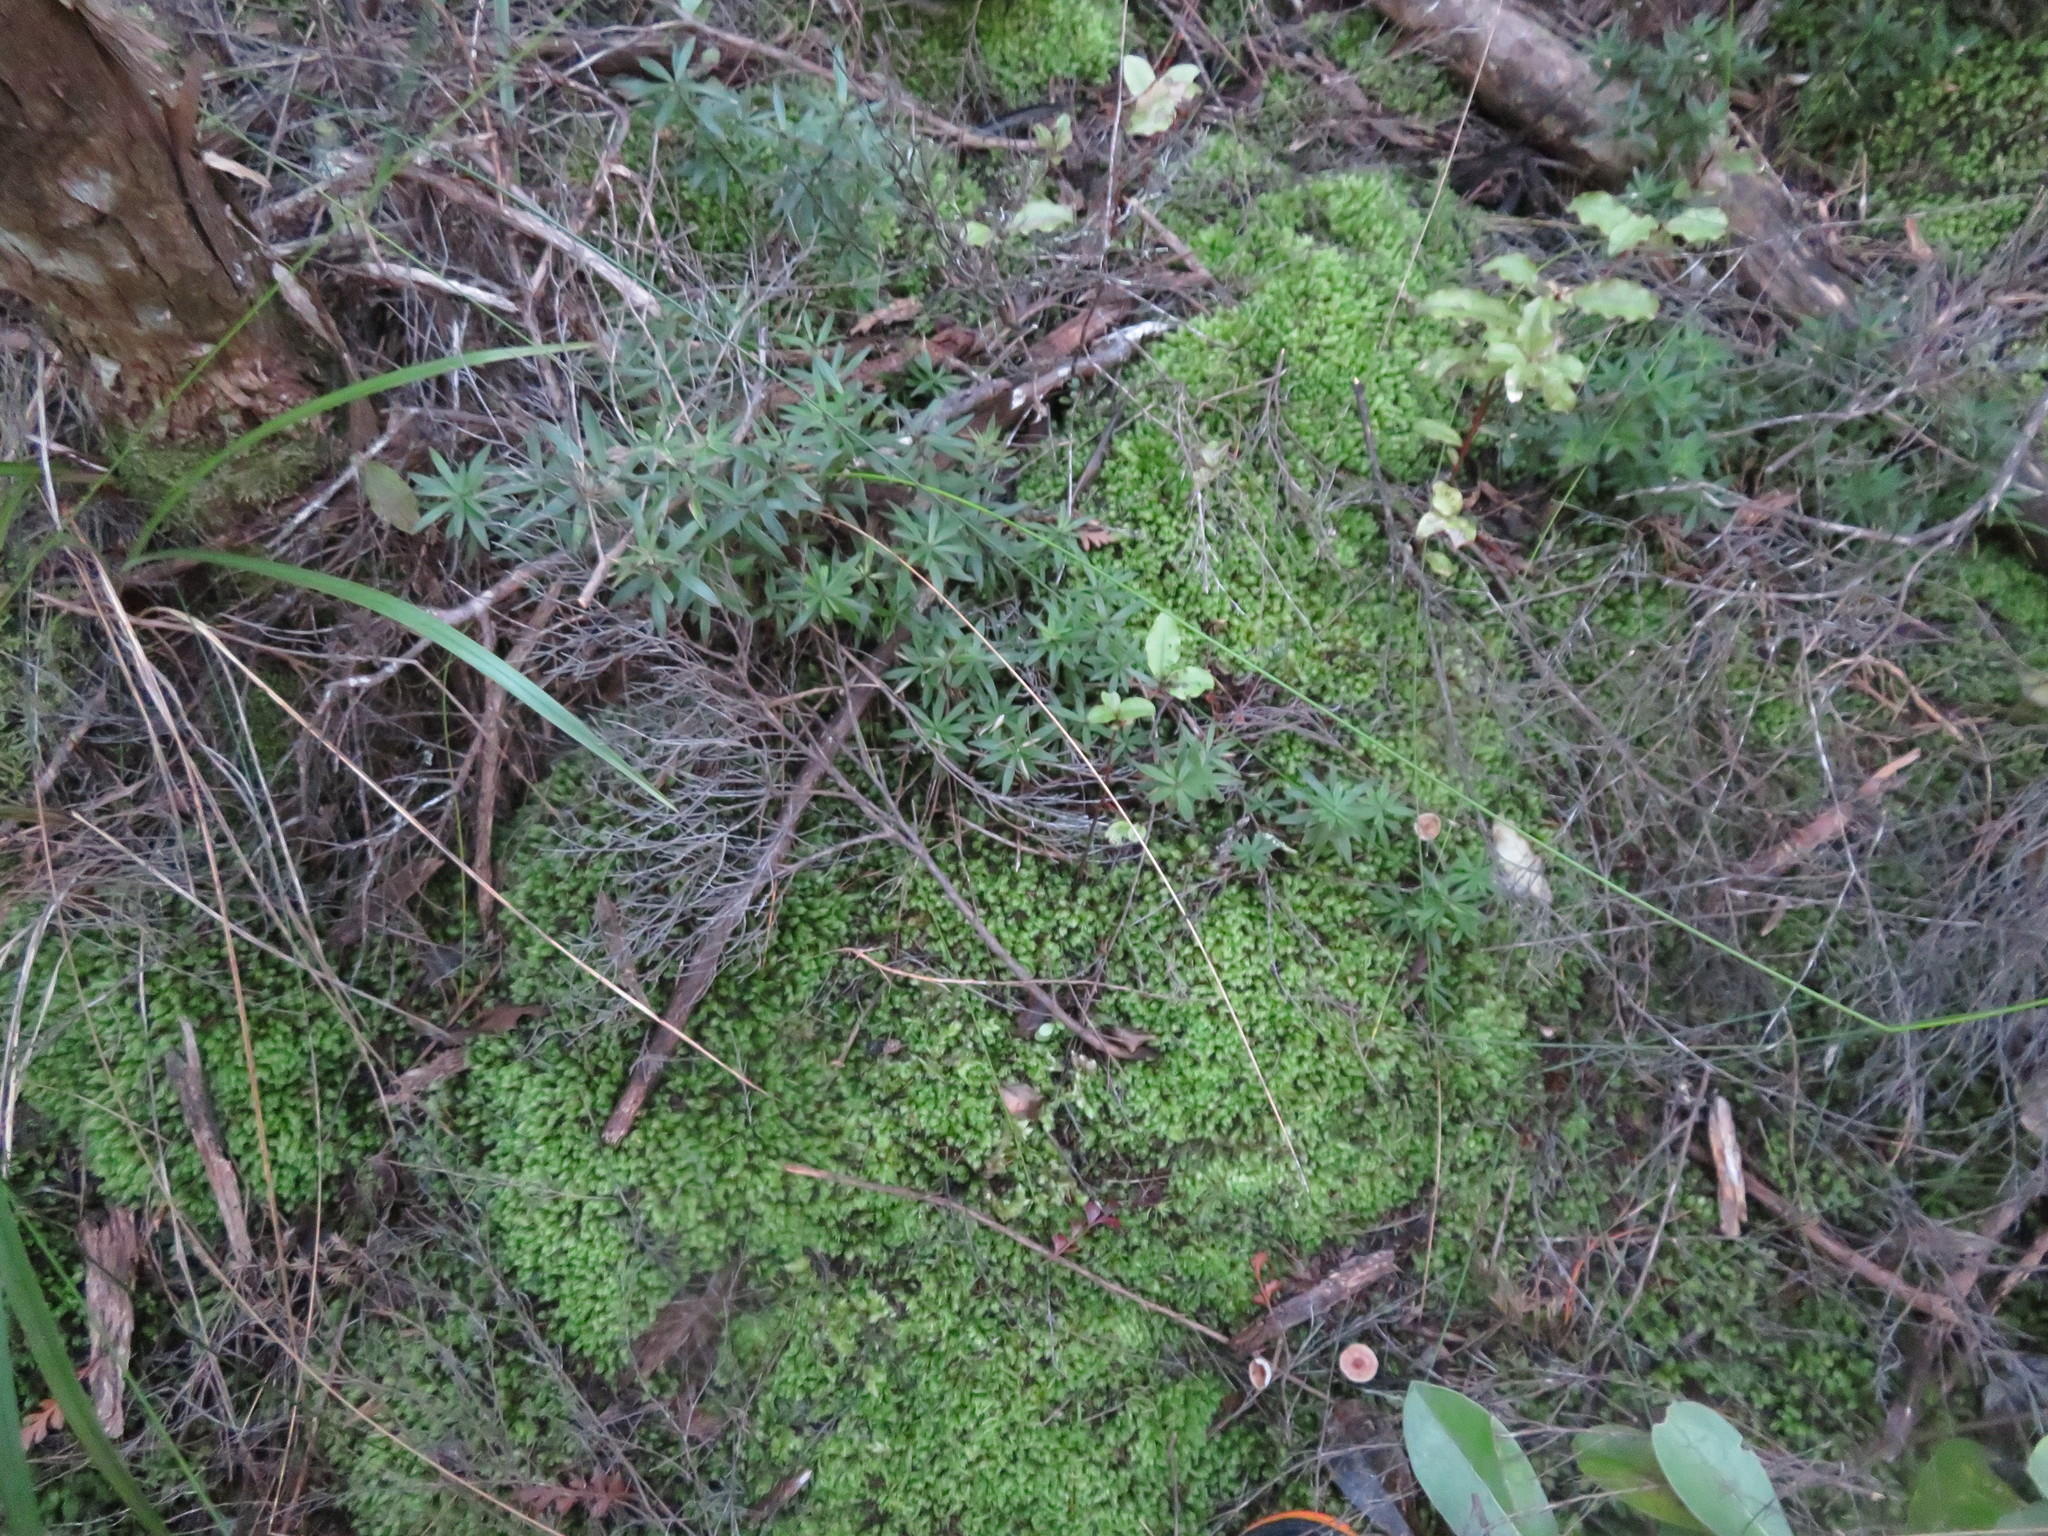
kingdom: Plantae
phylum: Bryophyta
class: Bryopsida
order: Dicranales
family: Leucobryaceae
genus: Leucobryum
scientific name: Leucobryum javense
